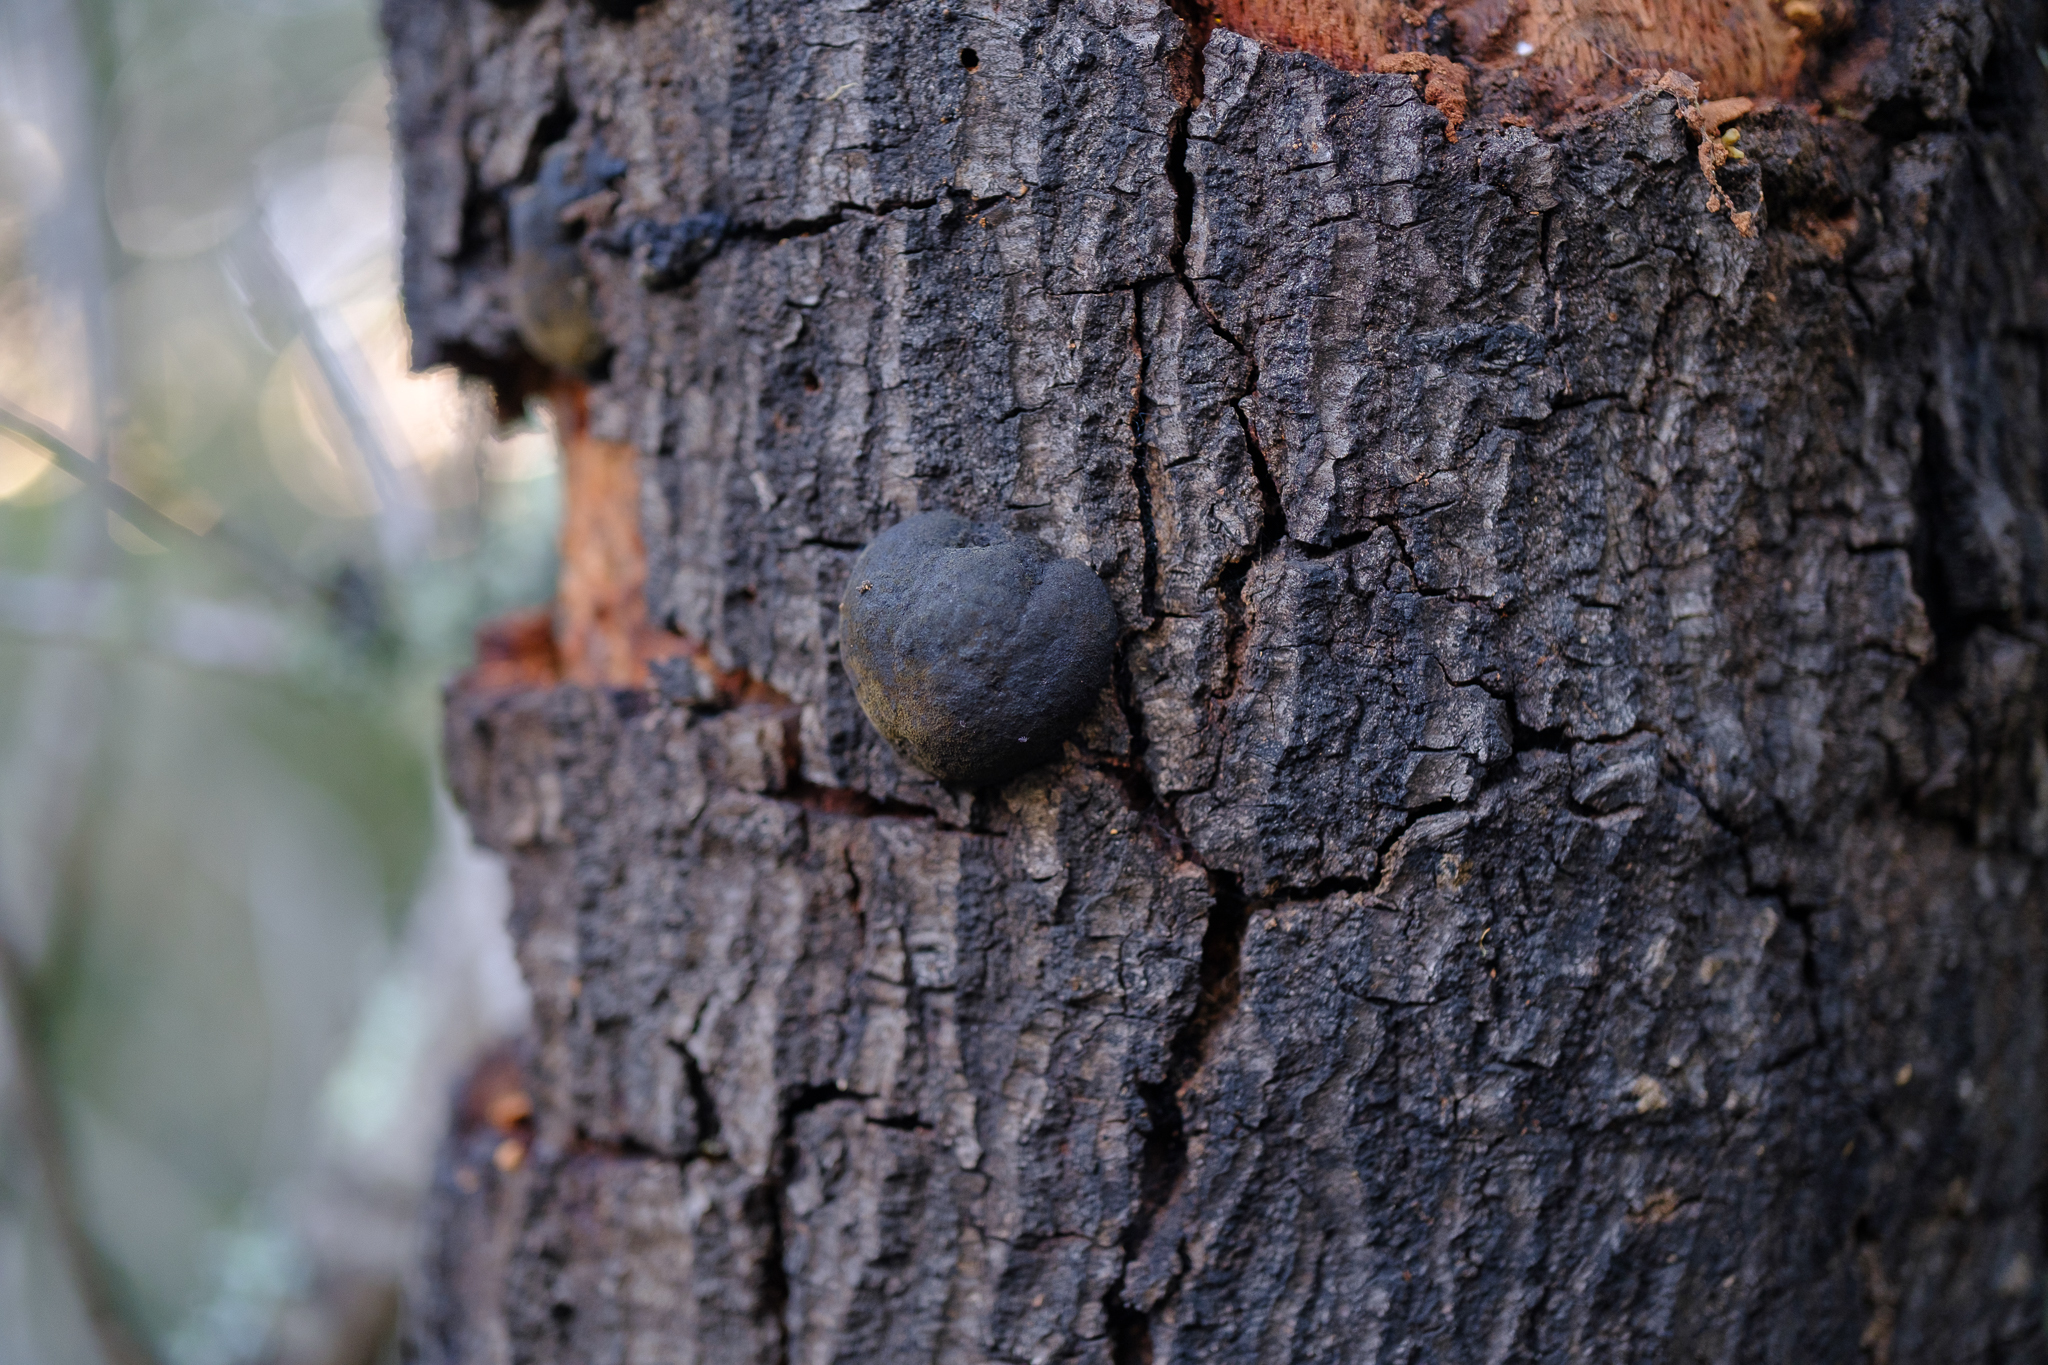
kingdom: Fungi
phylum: Ascomycota
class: Sordariomycetes
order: Xylariales
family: Hypoxylaceae
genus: Annulohypoxylon
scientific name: Annulohypoxylon thouarsianum
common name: Cramp balls
